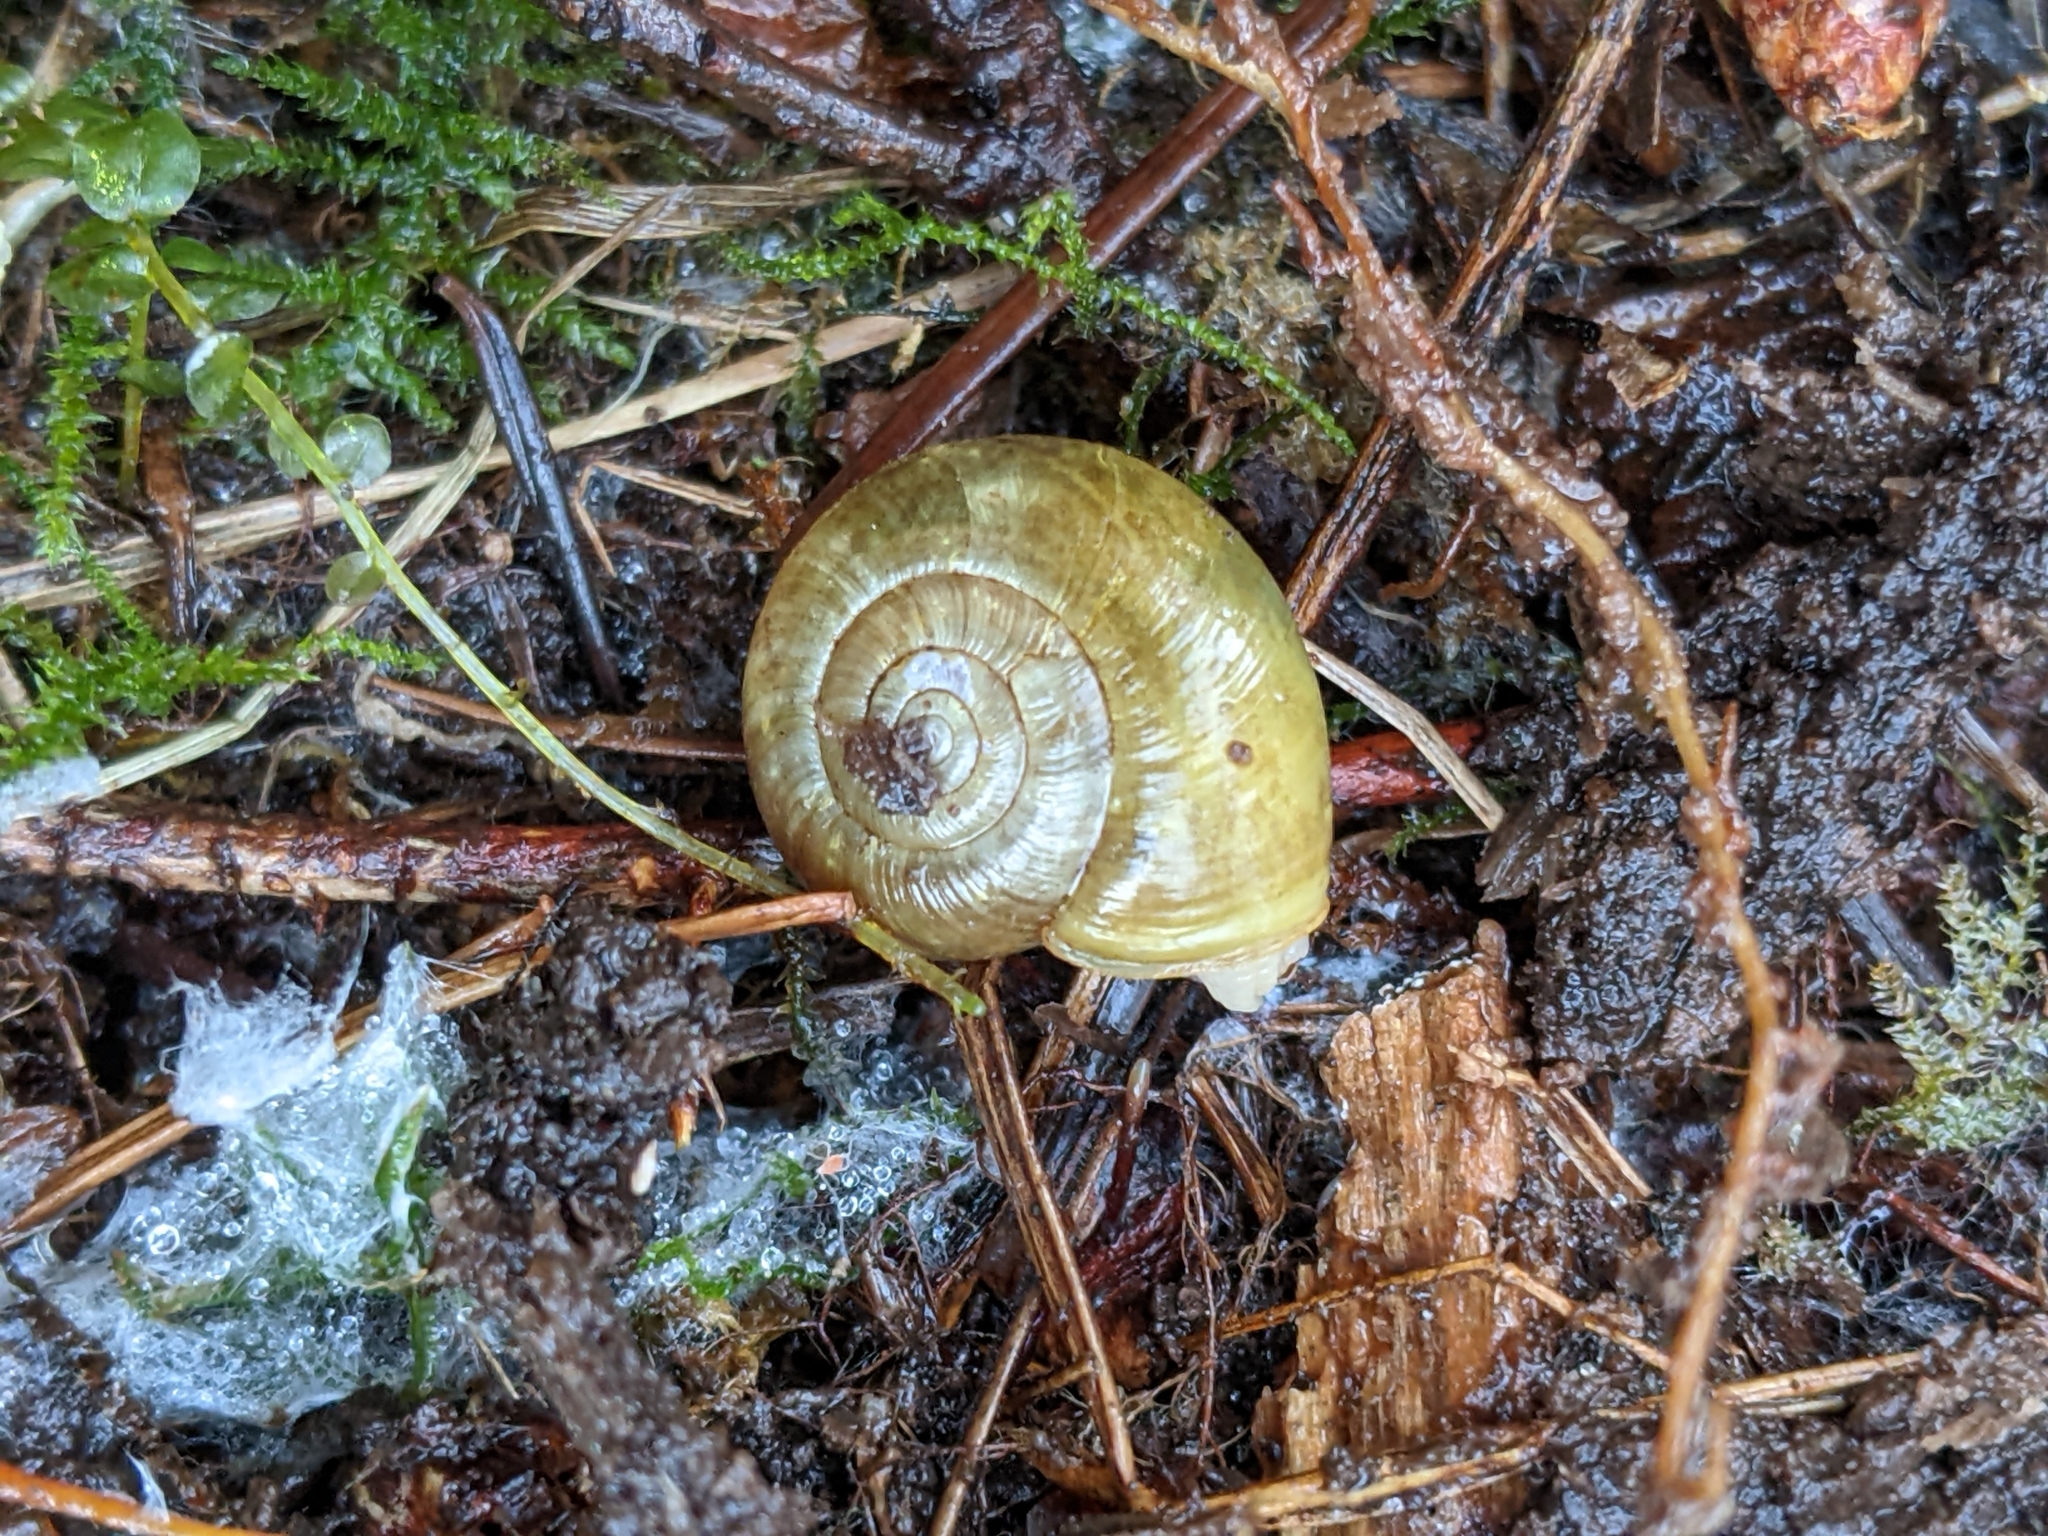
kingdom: Animalia
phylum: Mollusca
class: Gastropoda
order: Stylommatophora
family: Haplotrematidae
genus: Haplotrema
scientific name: Haplotrema vancouverense
